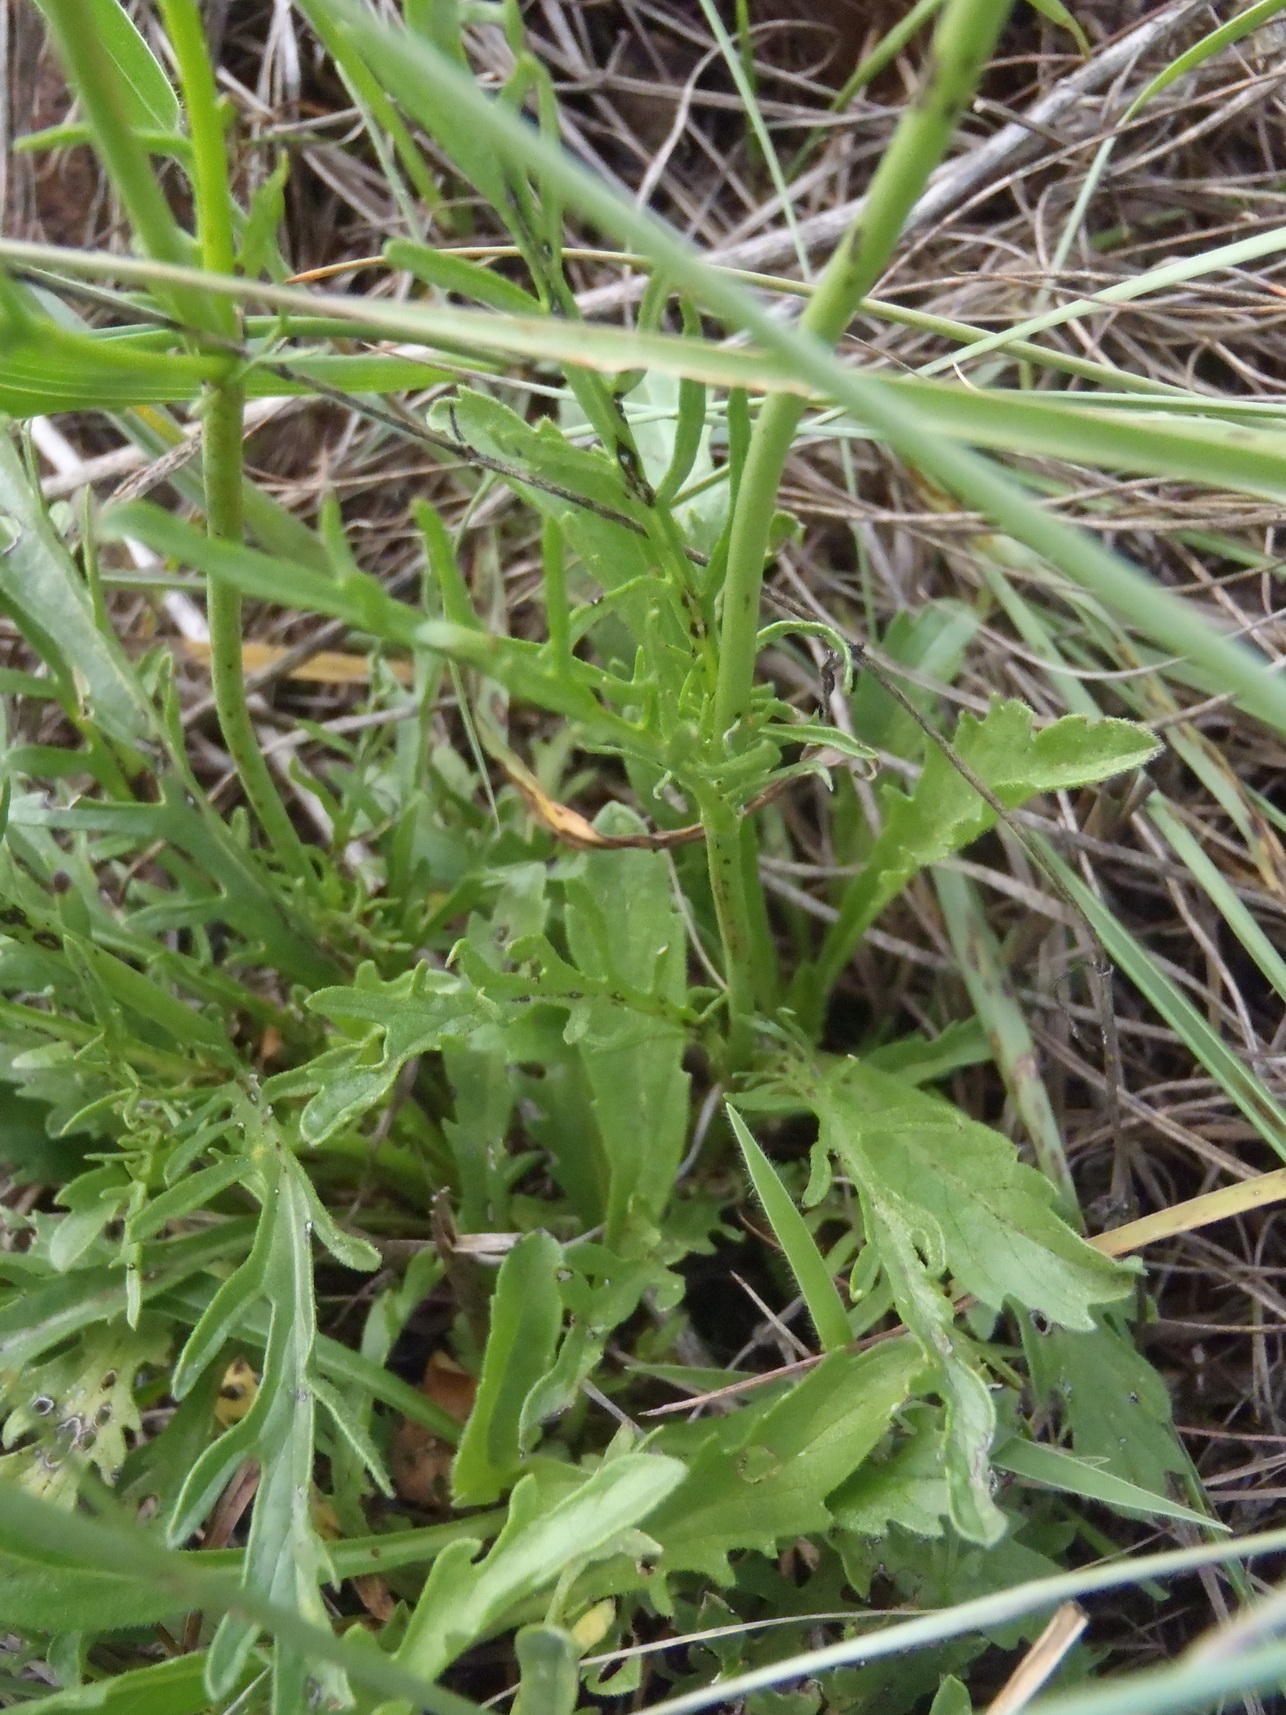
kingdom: Plantae
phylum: Tracheophyta
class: Magnoliopsida
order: Dipsacales
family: Caprifoliaceae
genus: Scabiosa
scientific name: Scabiosa columbaria
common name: Small scabious
